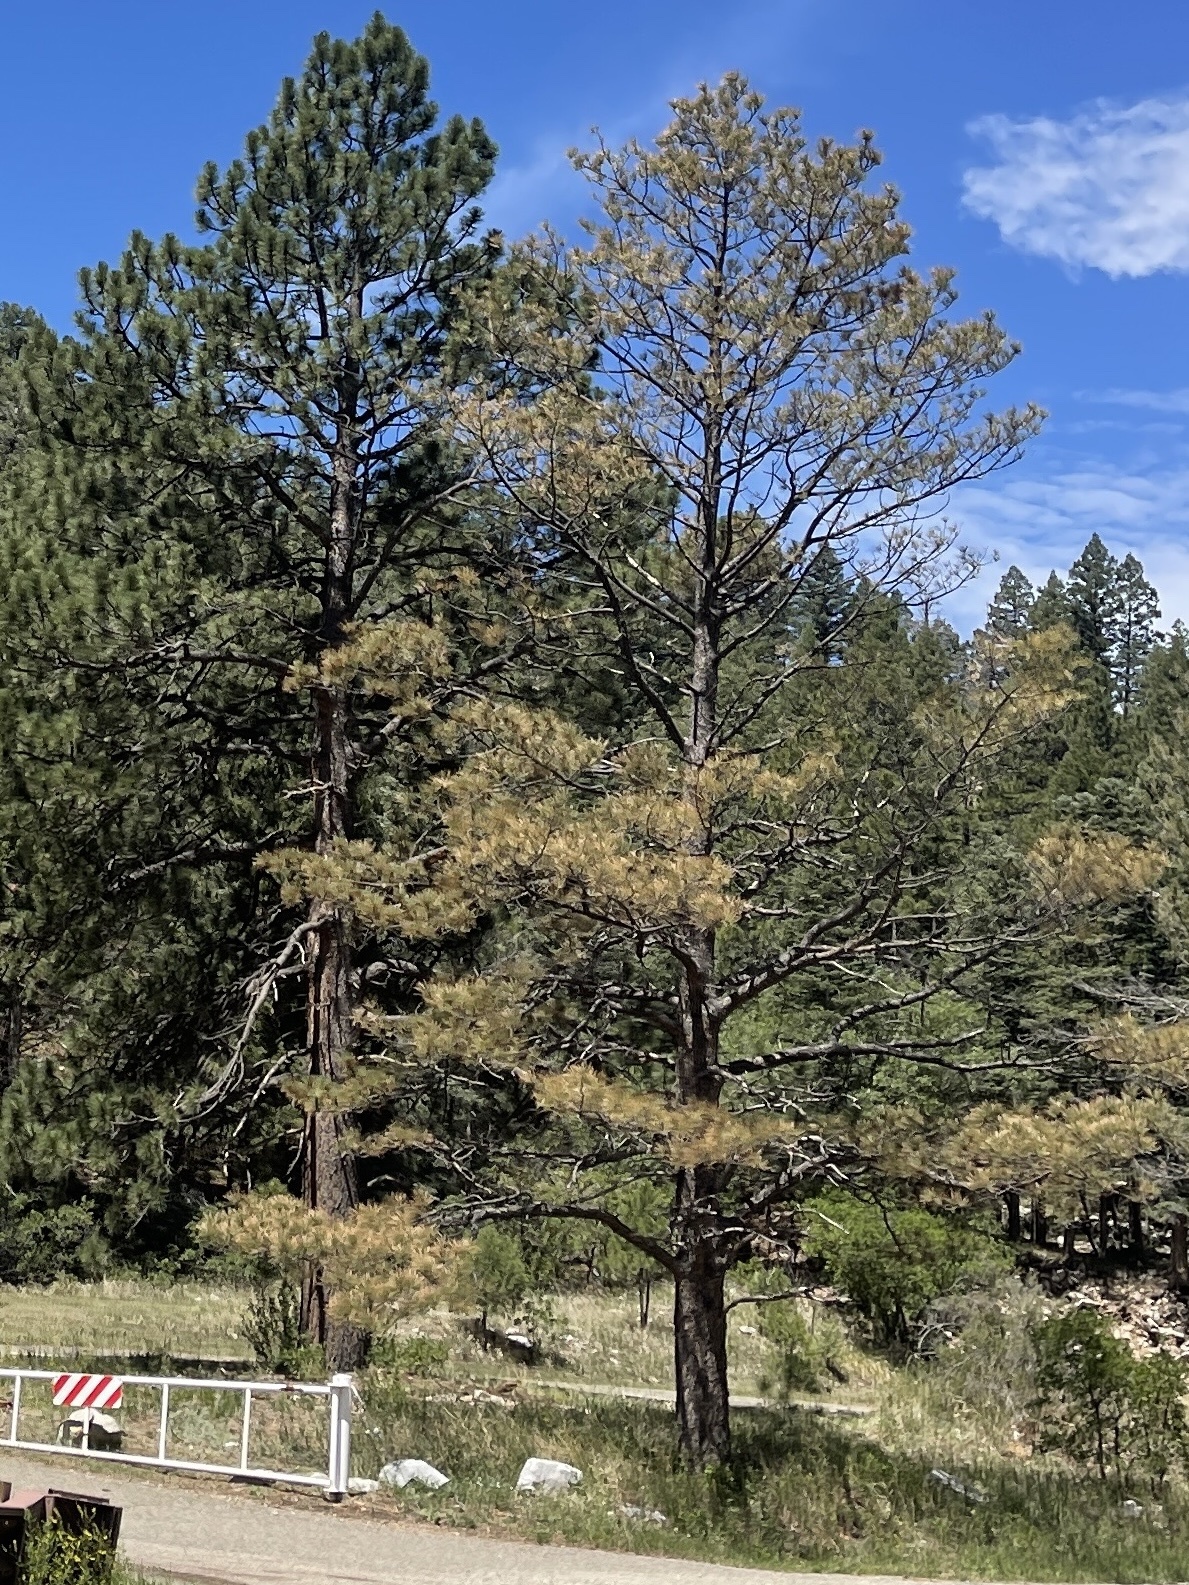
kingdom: Plantae
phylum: Tracheophyta
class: Pinopsida
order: Pinales
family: Pinaceae
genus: Pinus
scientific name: Pinus ponderosa
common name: Western yellow-pine
